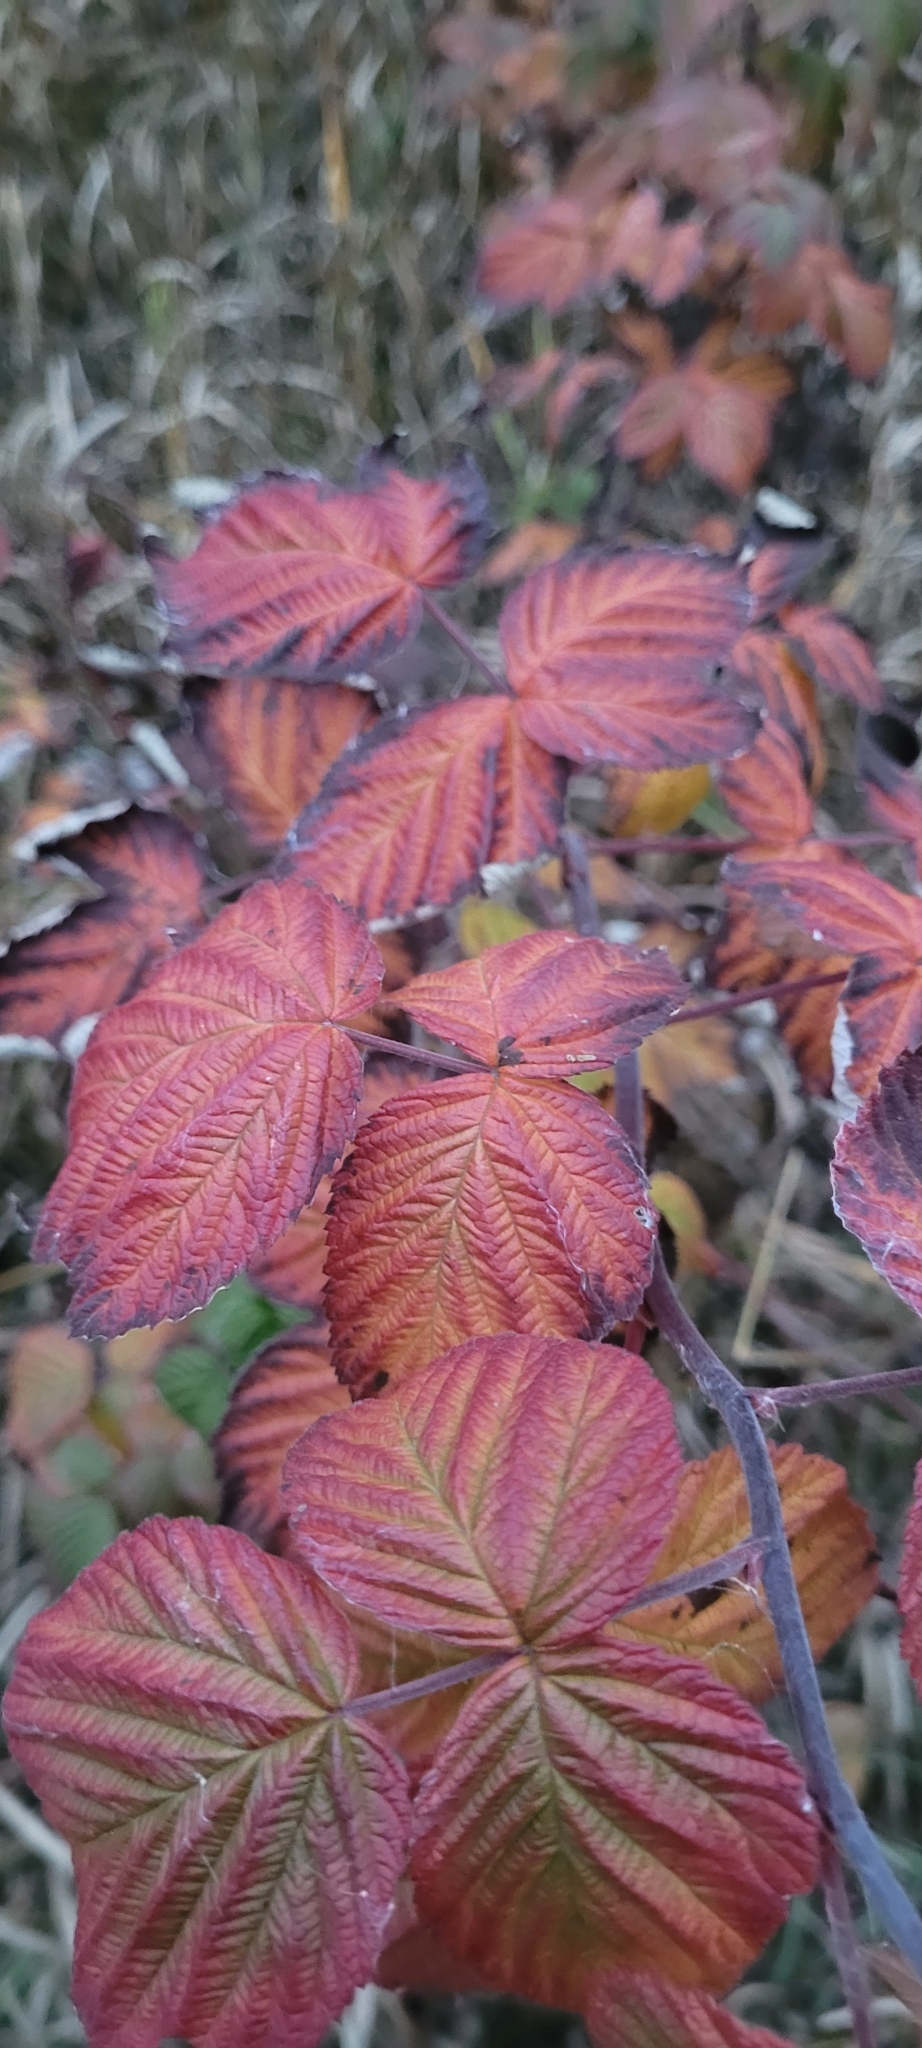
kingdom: Plantae
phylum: Tracheophyta
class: Magnoliopsida
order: Rosales
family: Rosaceae
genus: Rubus
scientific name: Rubus idaeus
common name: Raspberry
